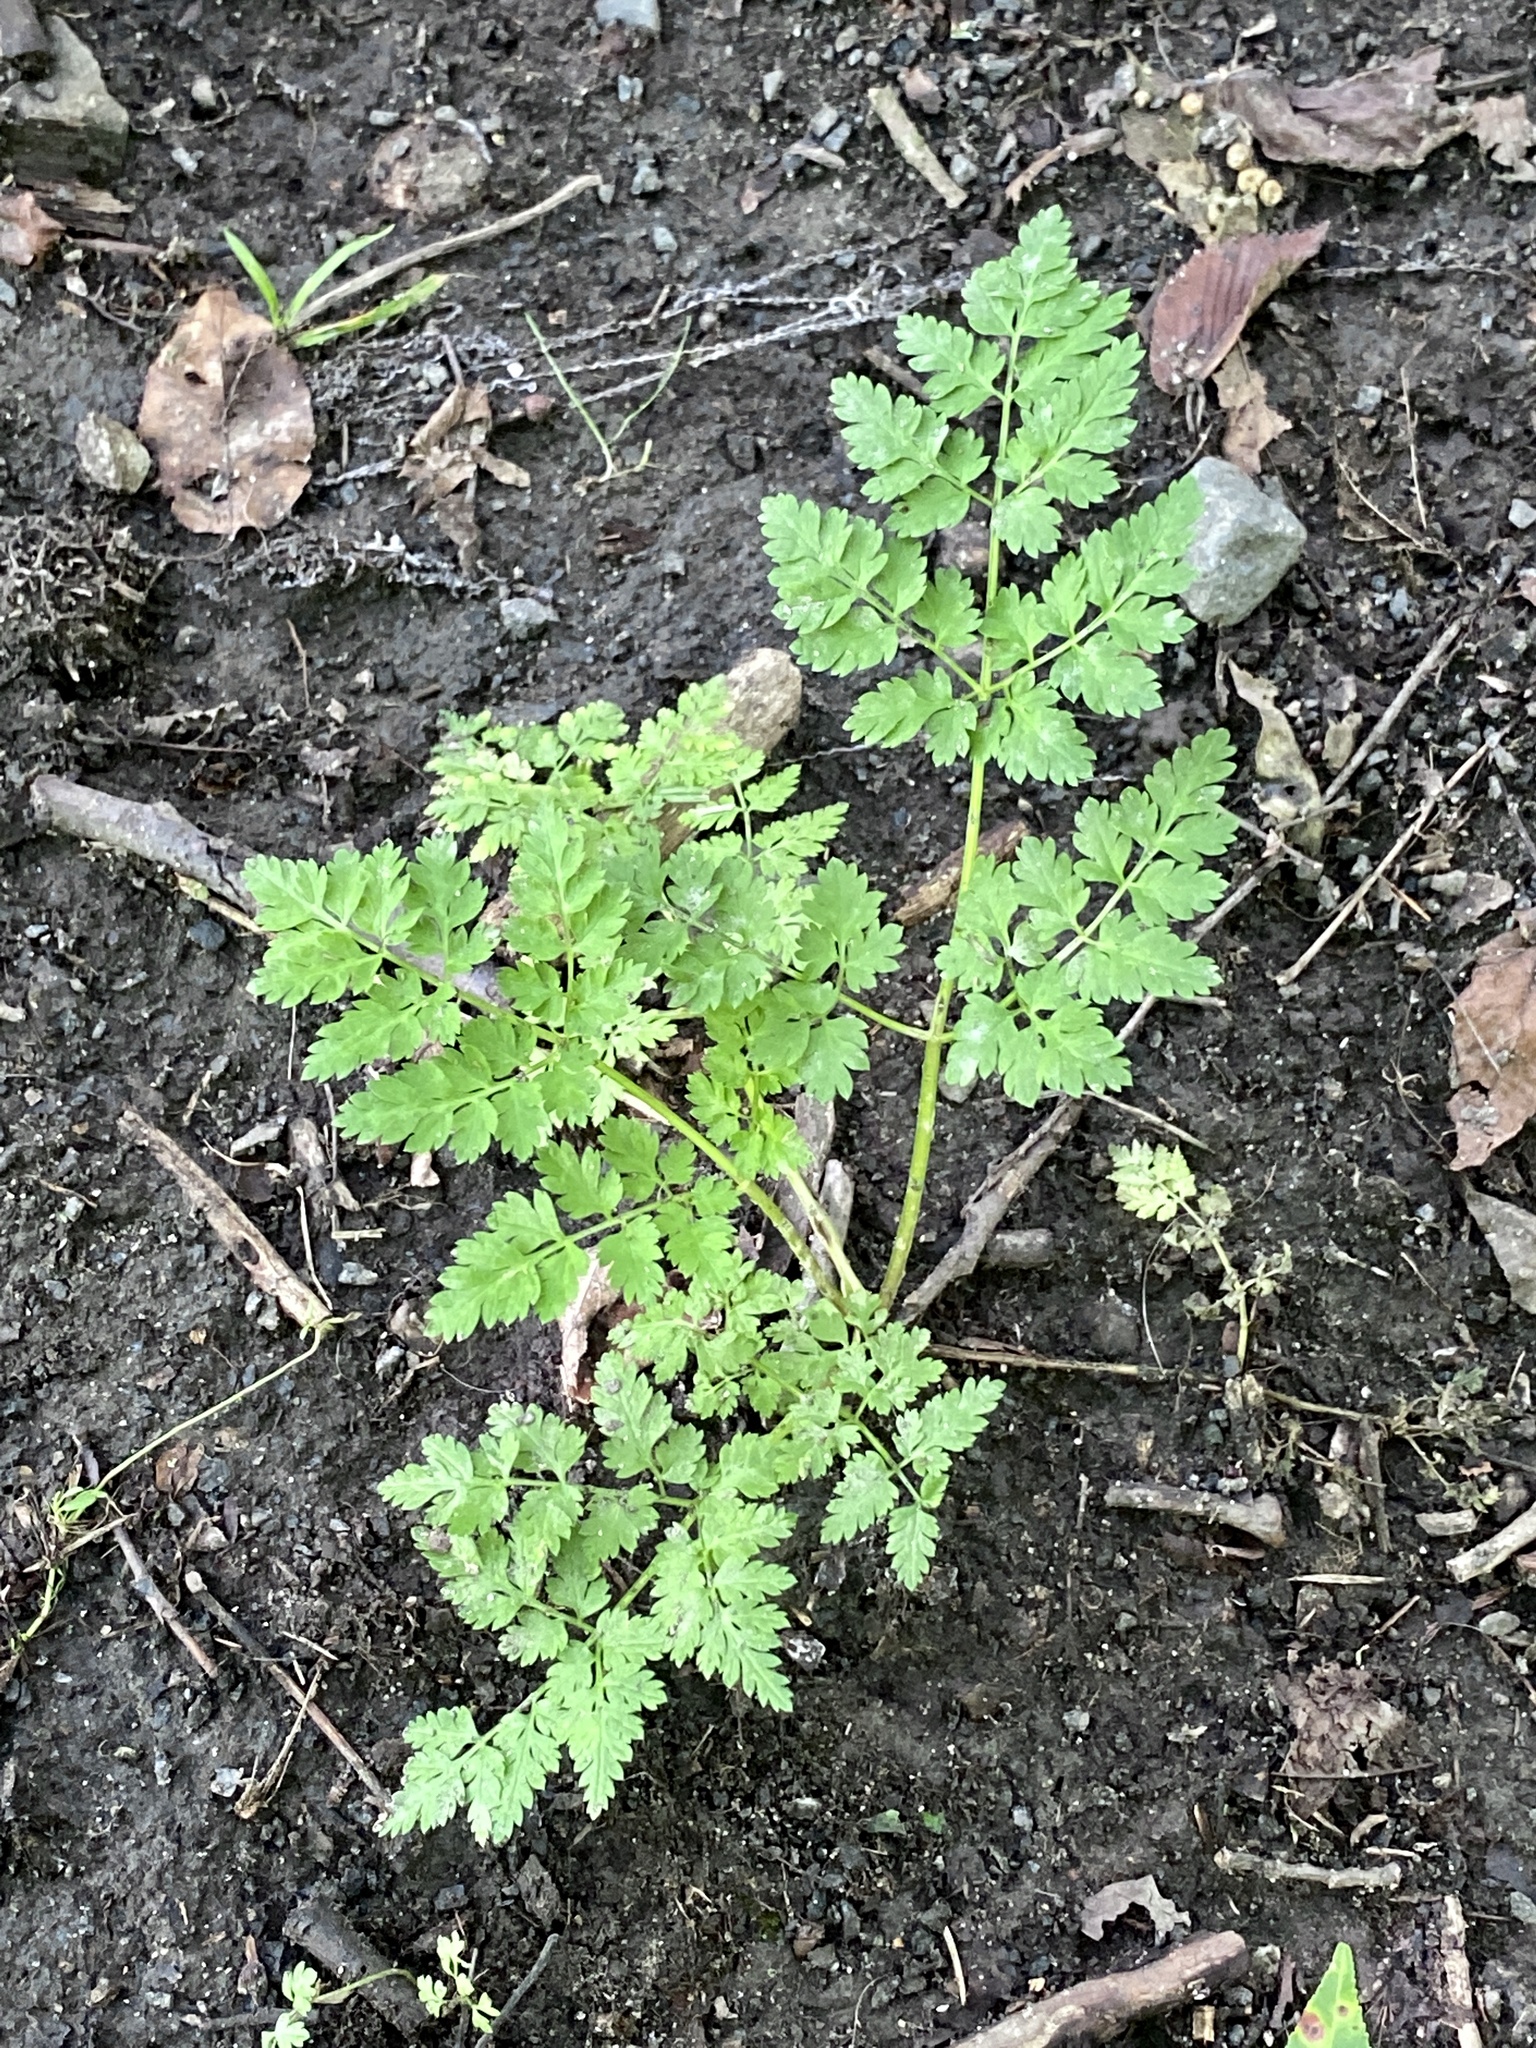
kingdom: Plantae
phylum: Tracheophyta
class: Magnoliopsida
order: Apiales
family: Apiaceae
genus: Anthriscus
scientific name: Anthriscus sylvestris
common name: Cow parsley
